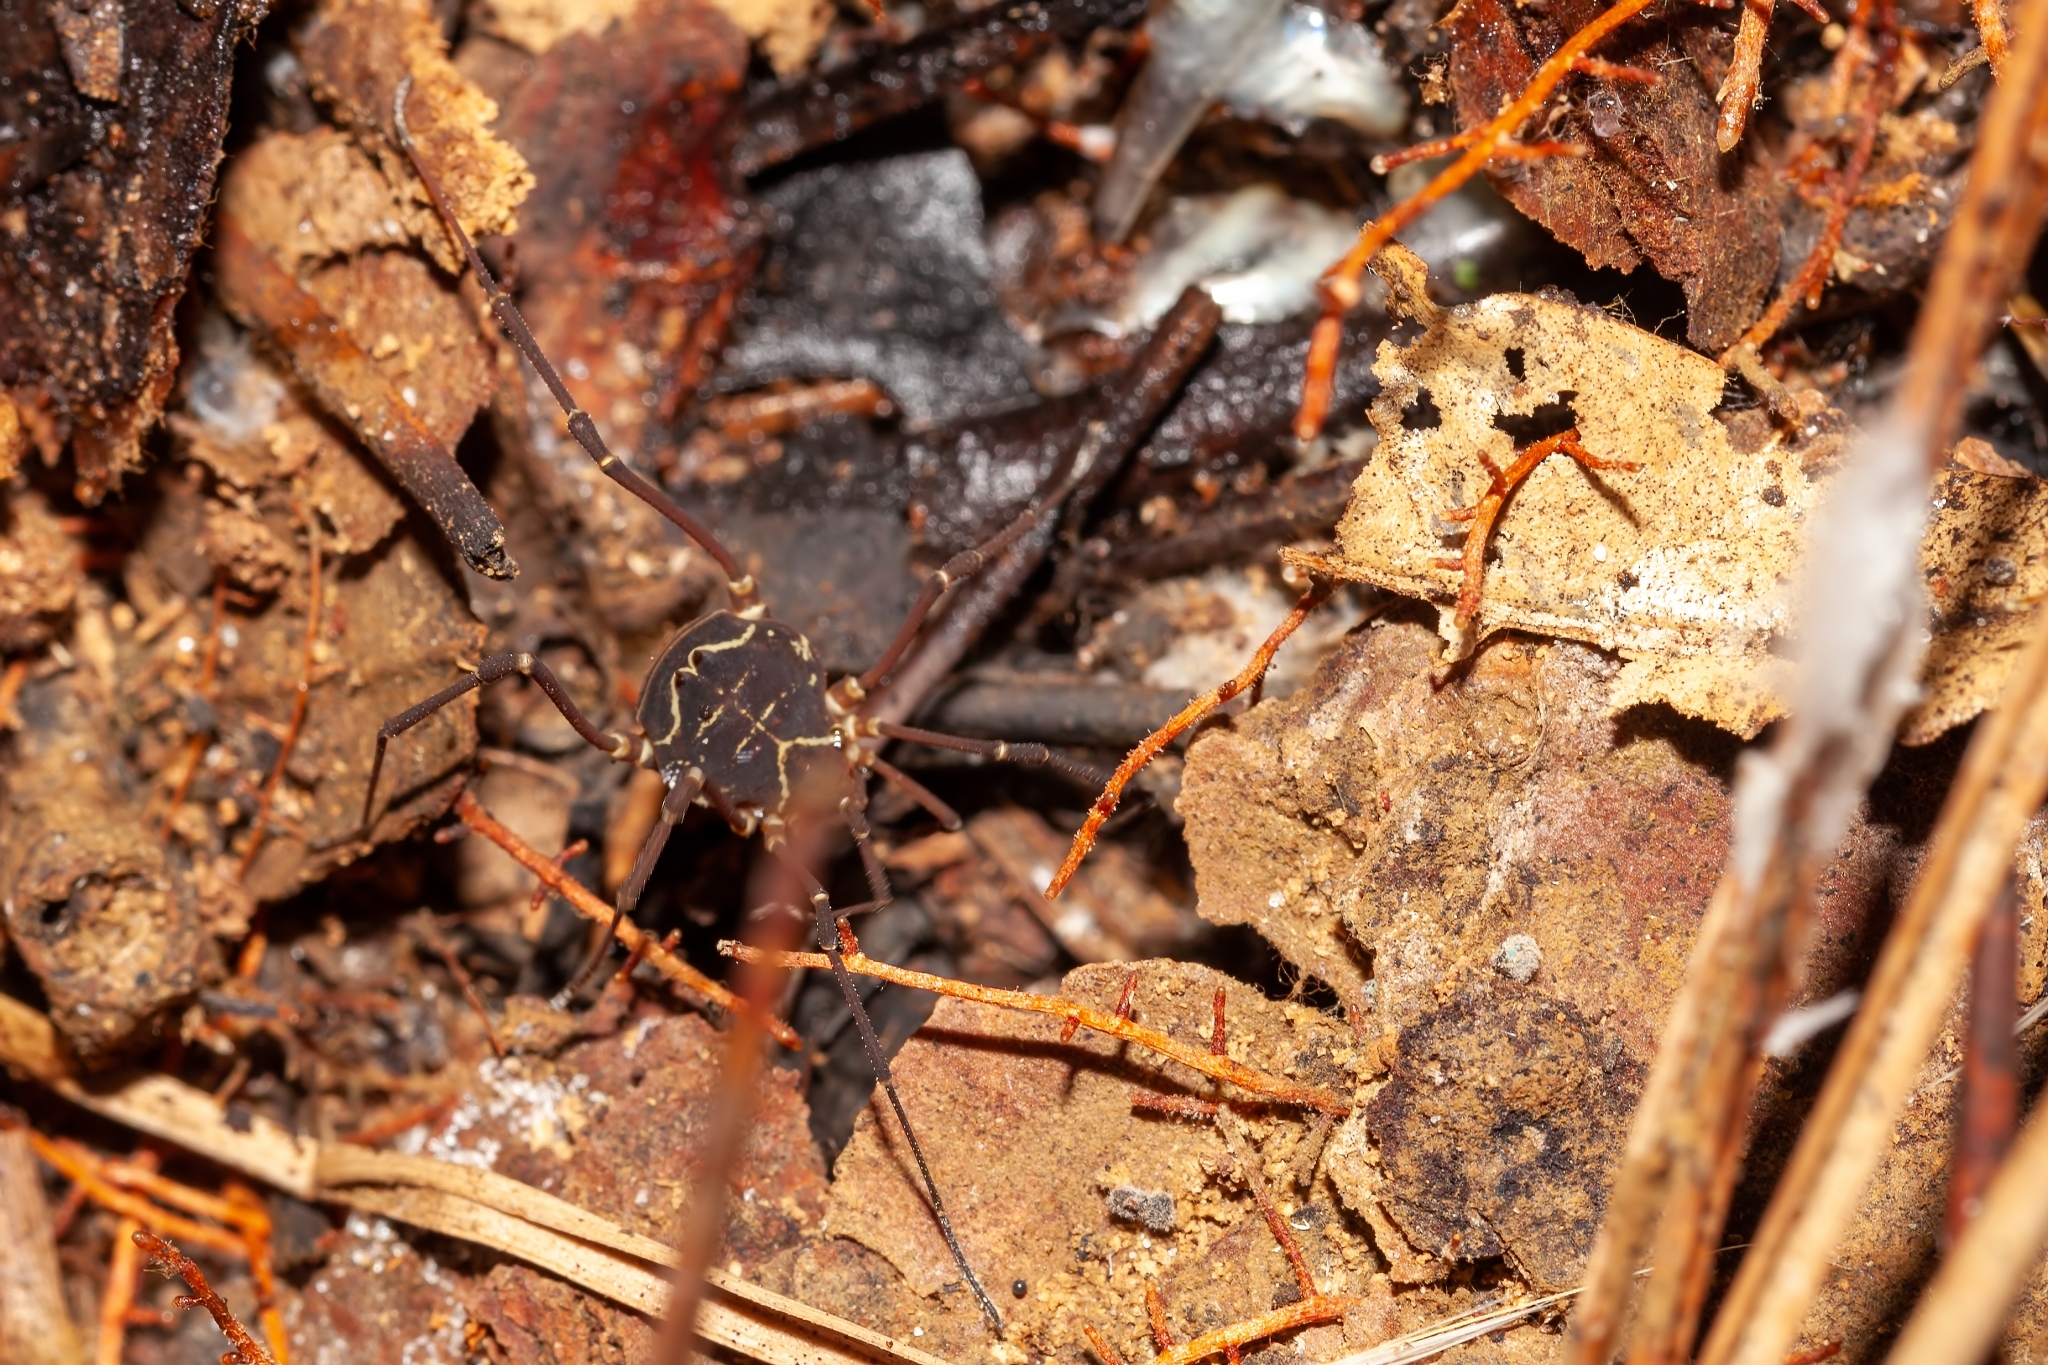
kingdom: Animalia
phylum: Arthropoda
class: Arachnida
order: Opiliones
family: Cosmetidae
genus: Libitioides
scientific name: Libitioides ornata
